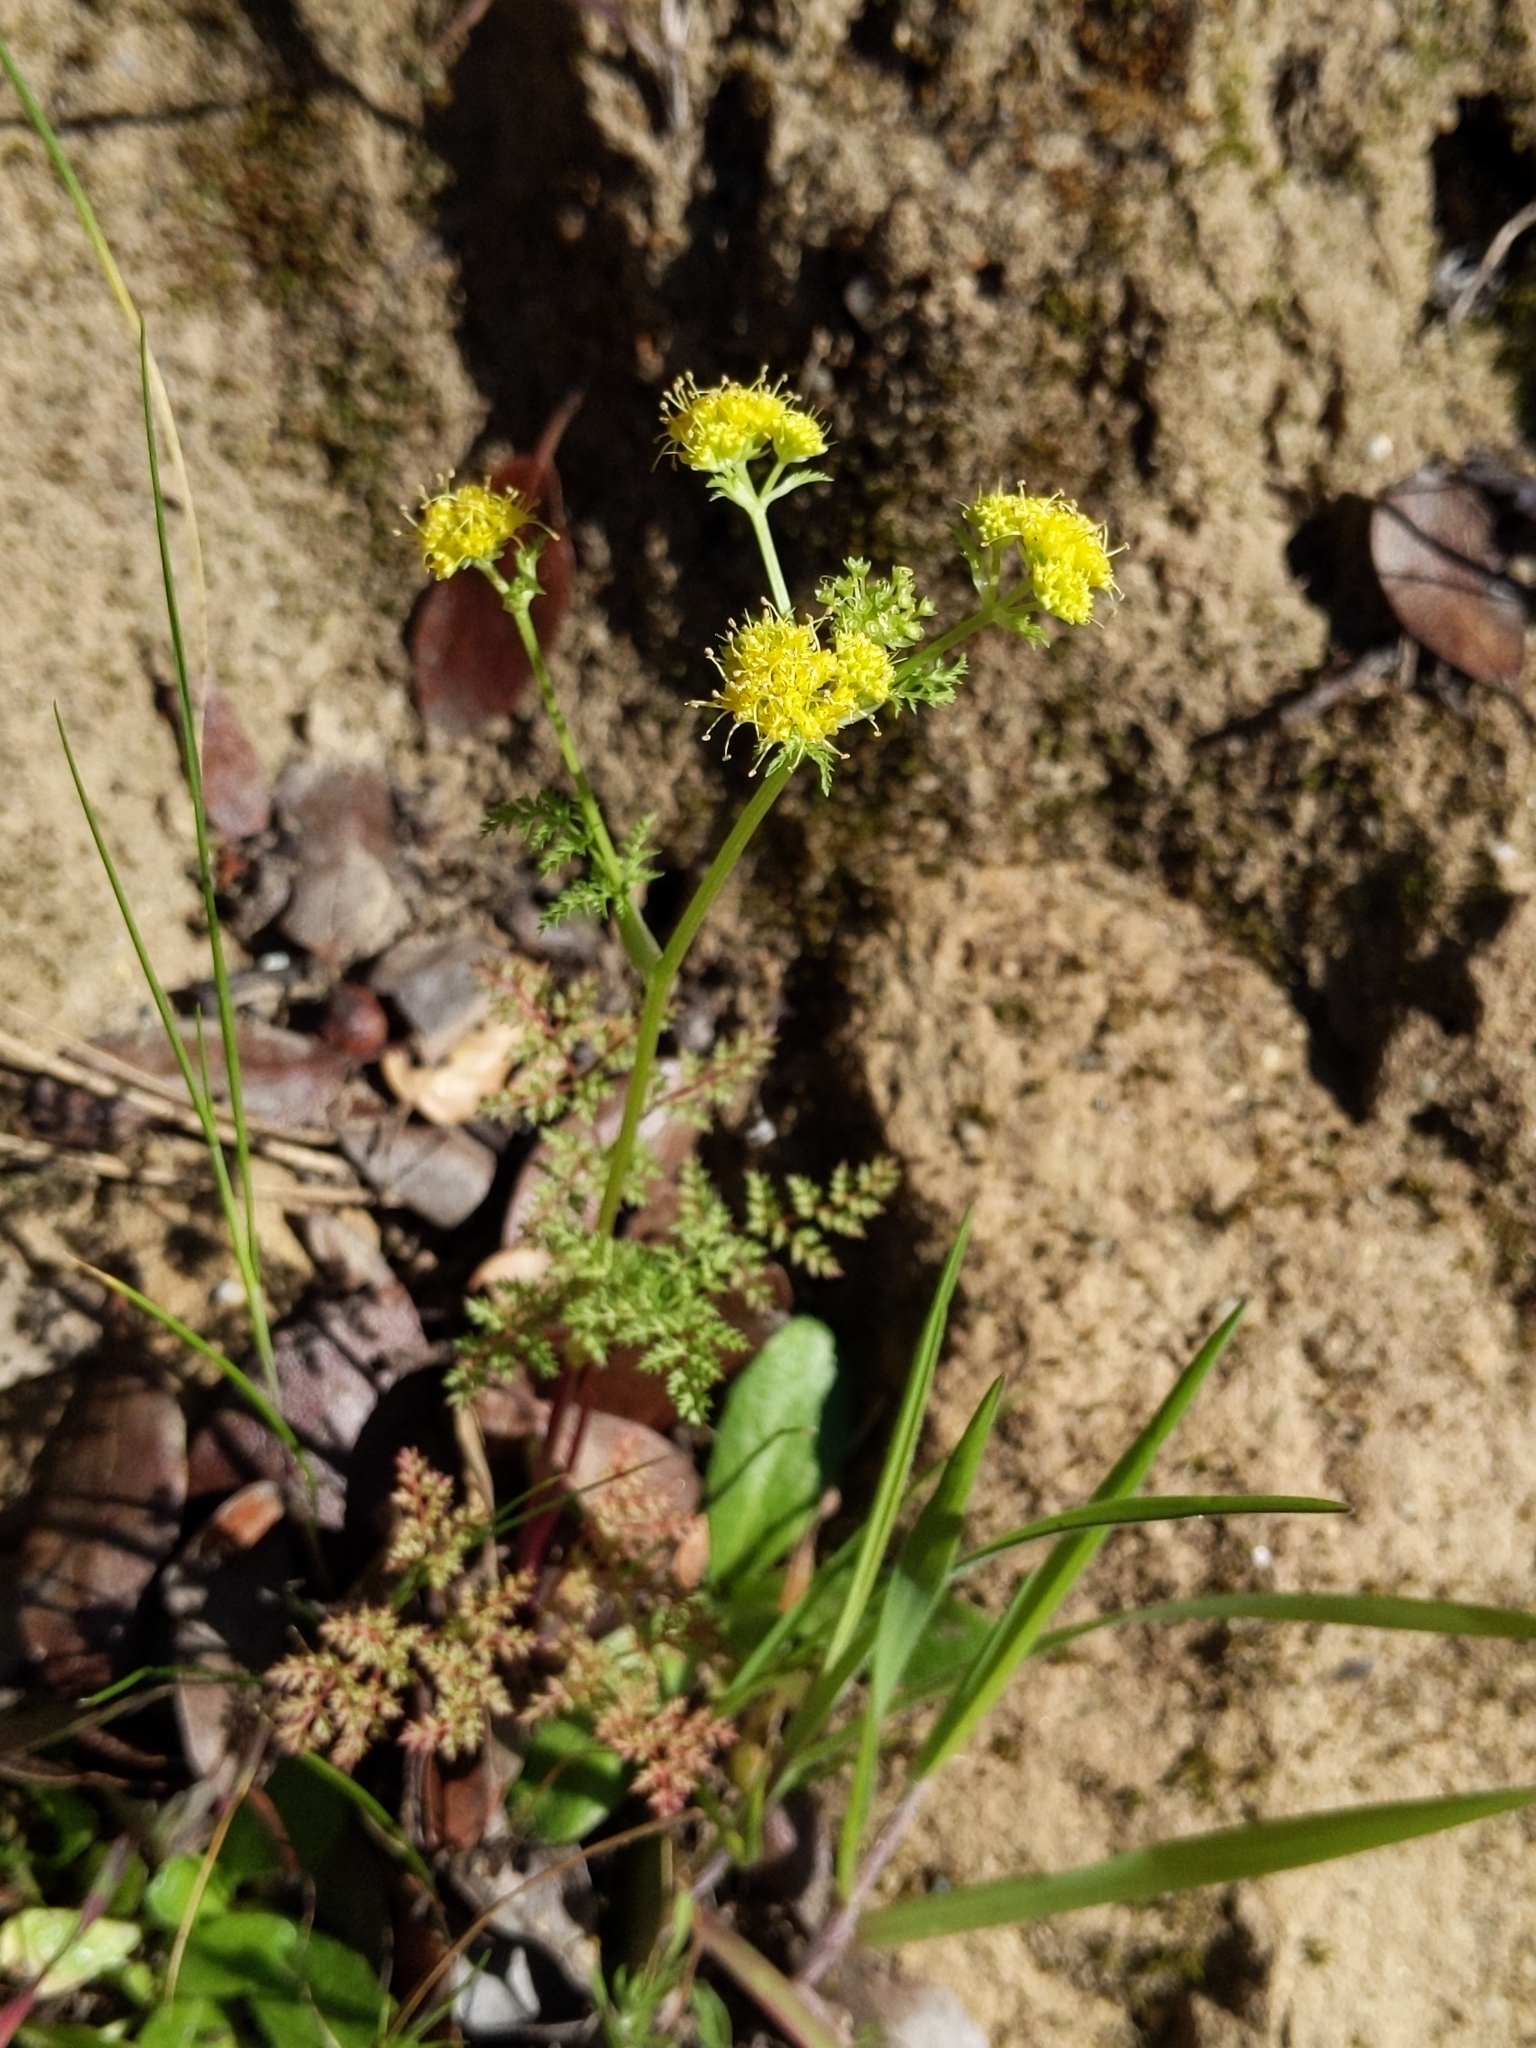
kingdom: Plantae
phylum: Tracheophyta
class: Magnoliopsida
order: Apiales
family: Apiaceae
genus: Sanicula
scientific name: Sanicula tuberosa
